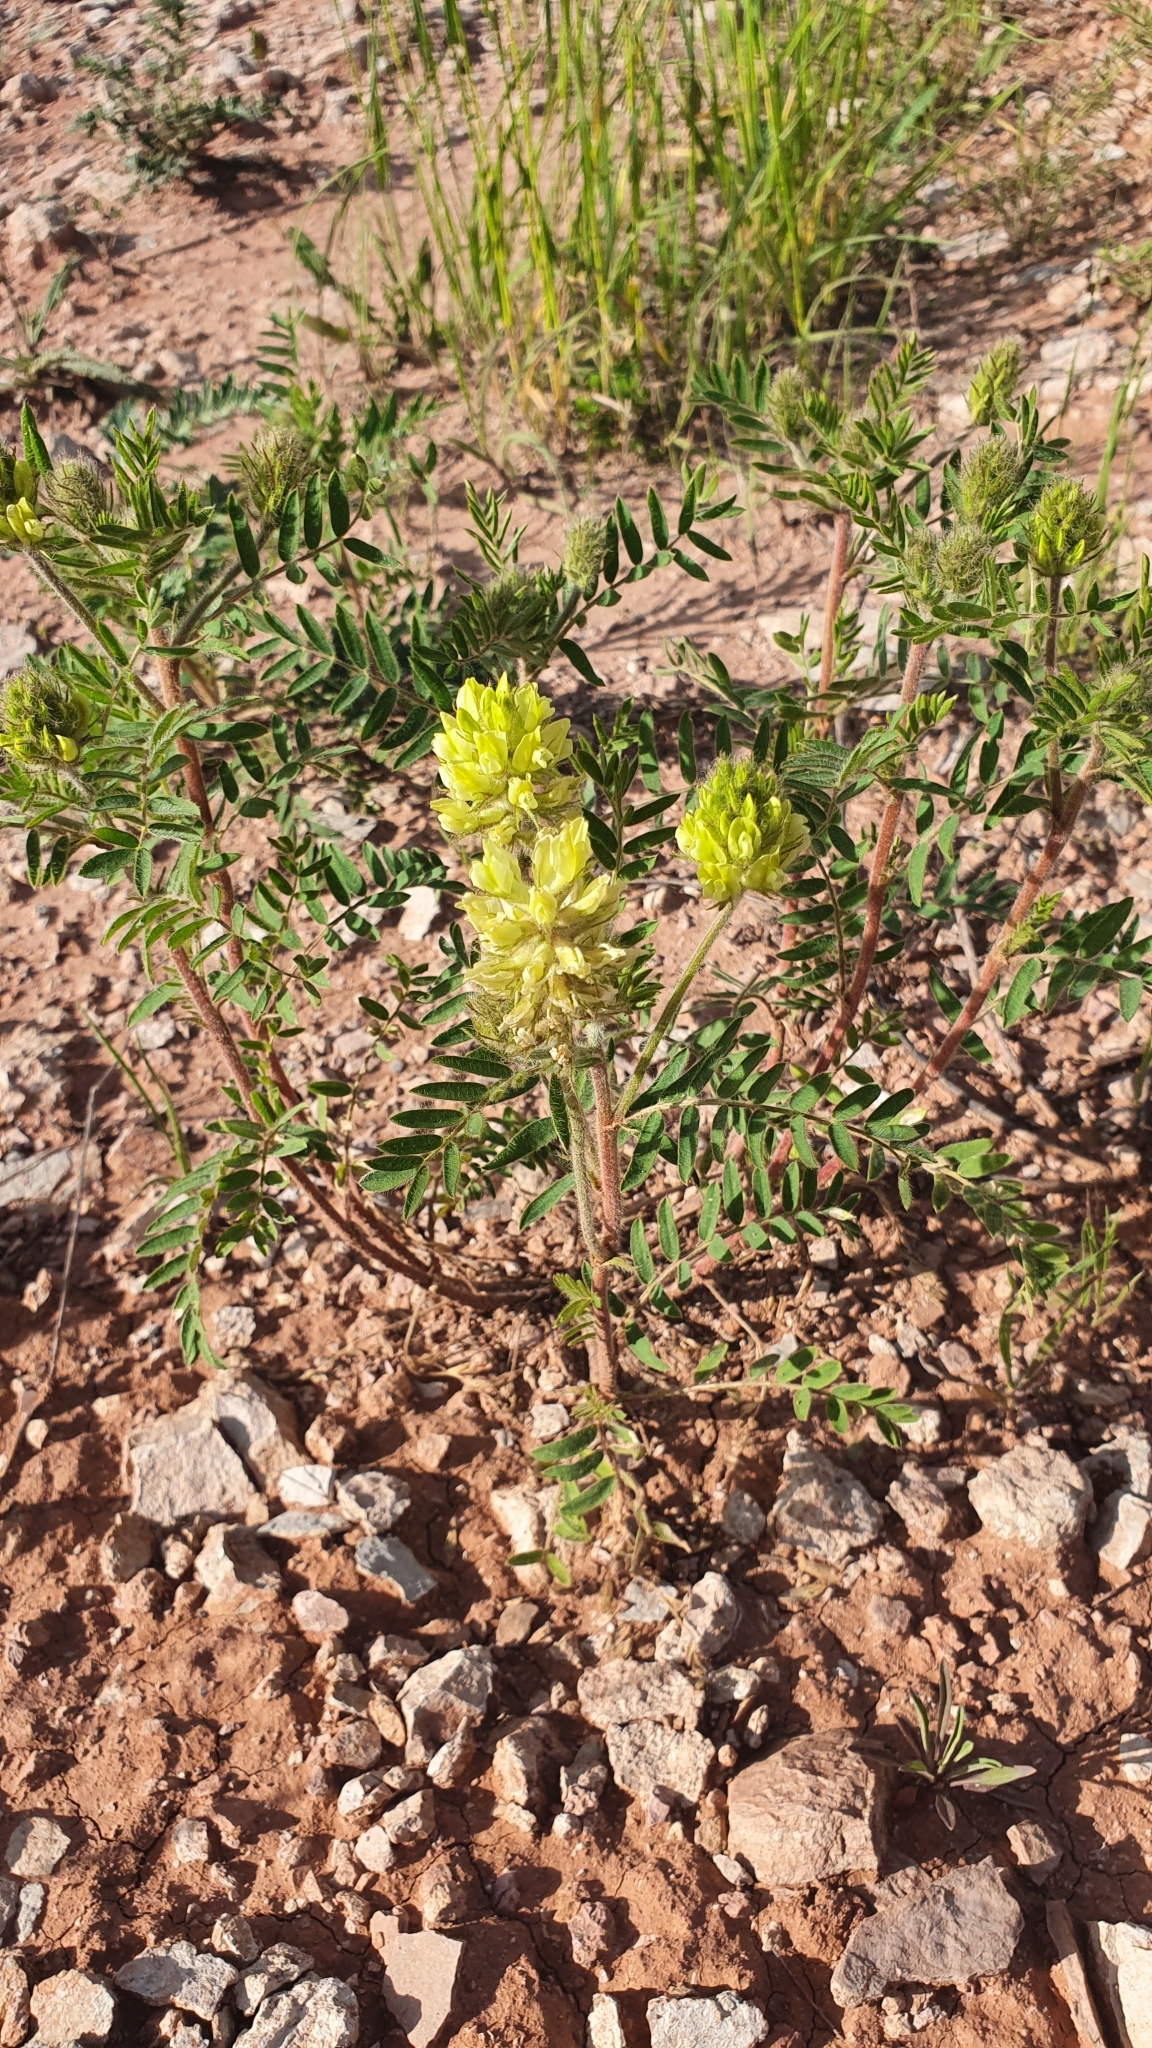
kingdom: Plantae
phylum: Tracheophyta
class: Magnoliopsida
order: Fabales
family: Fabaceae
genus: Oxytropis
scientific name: Oxytropis pilosa
